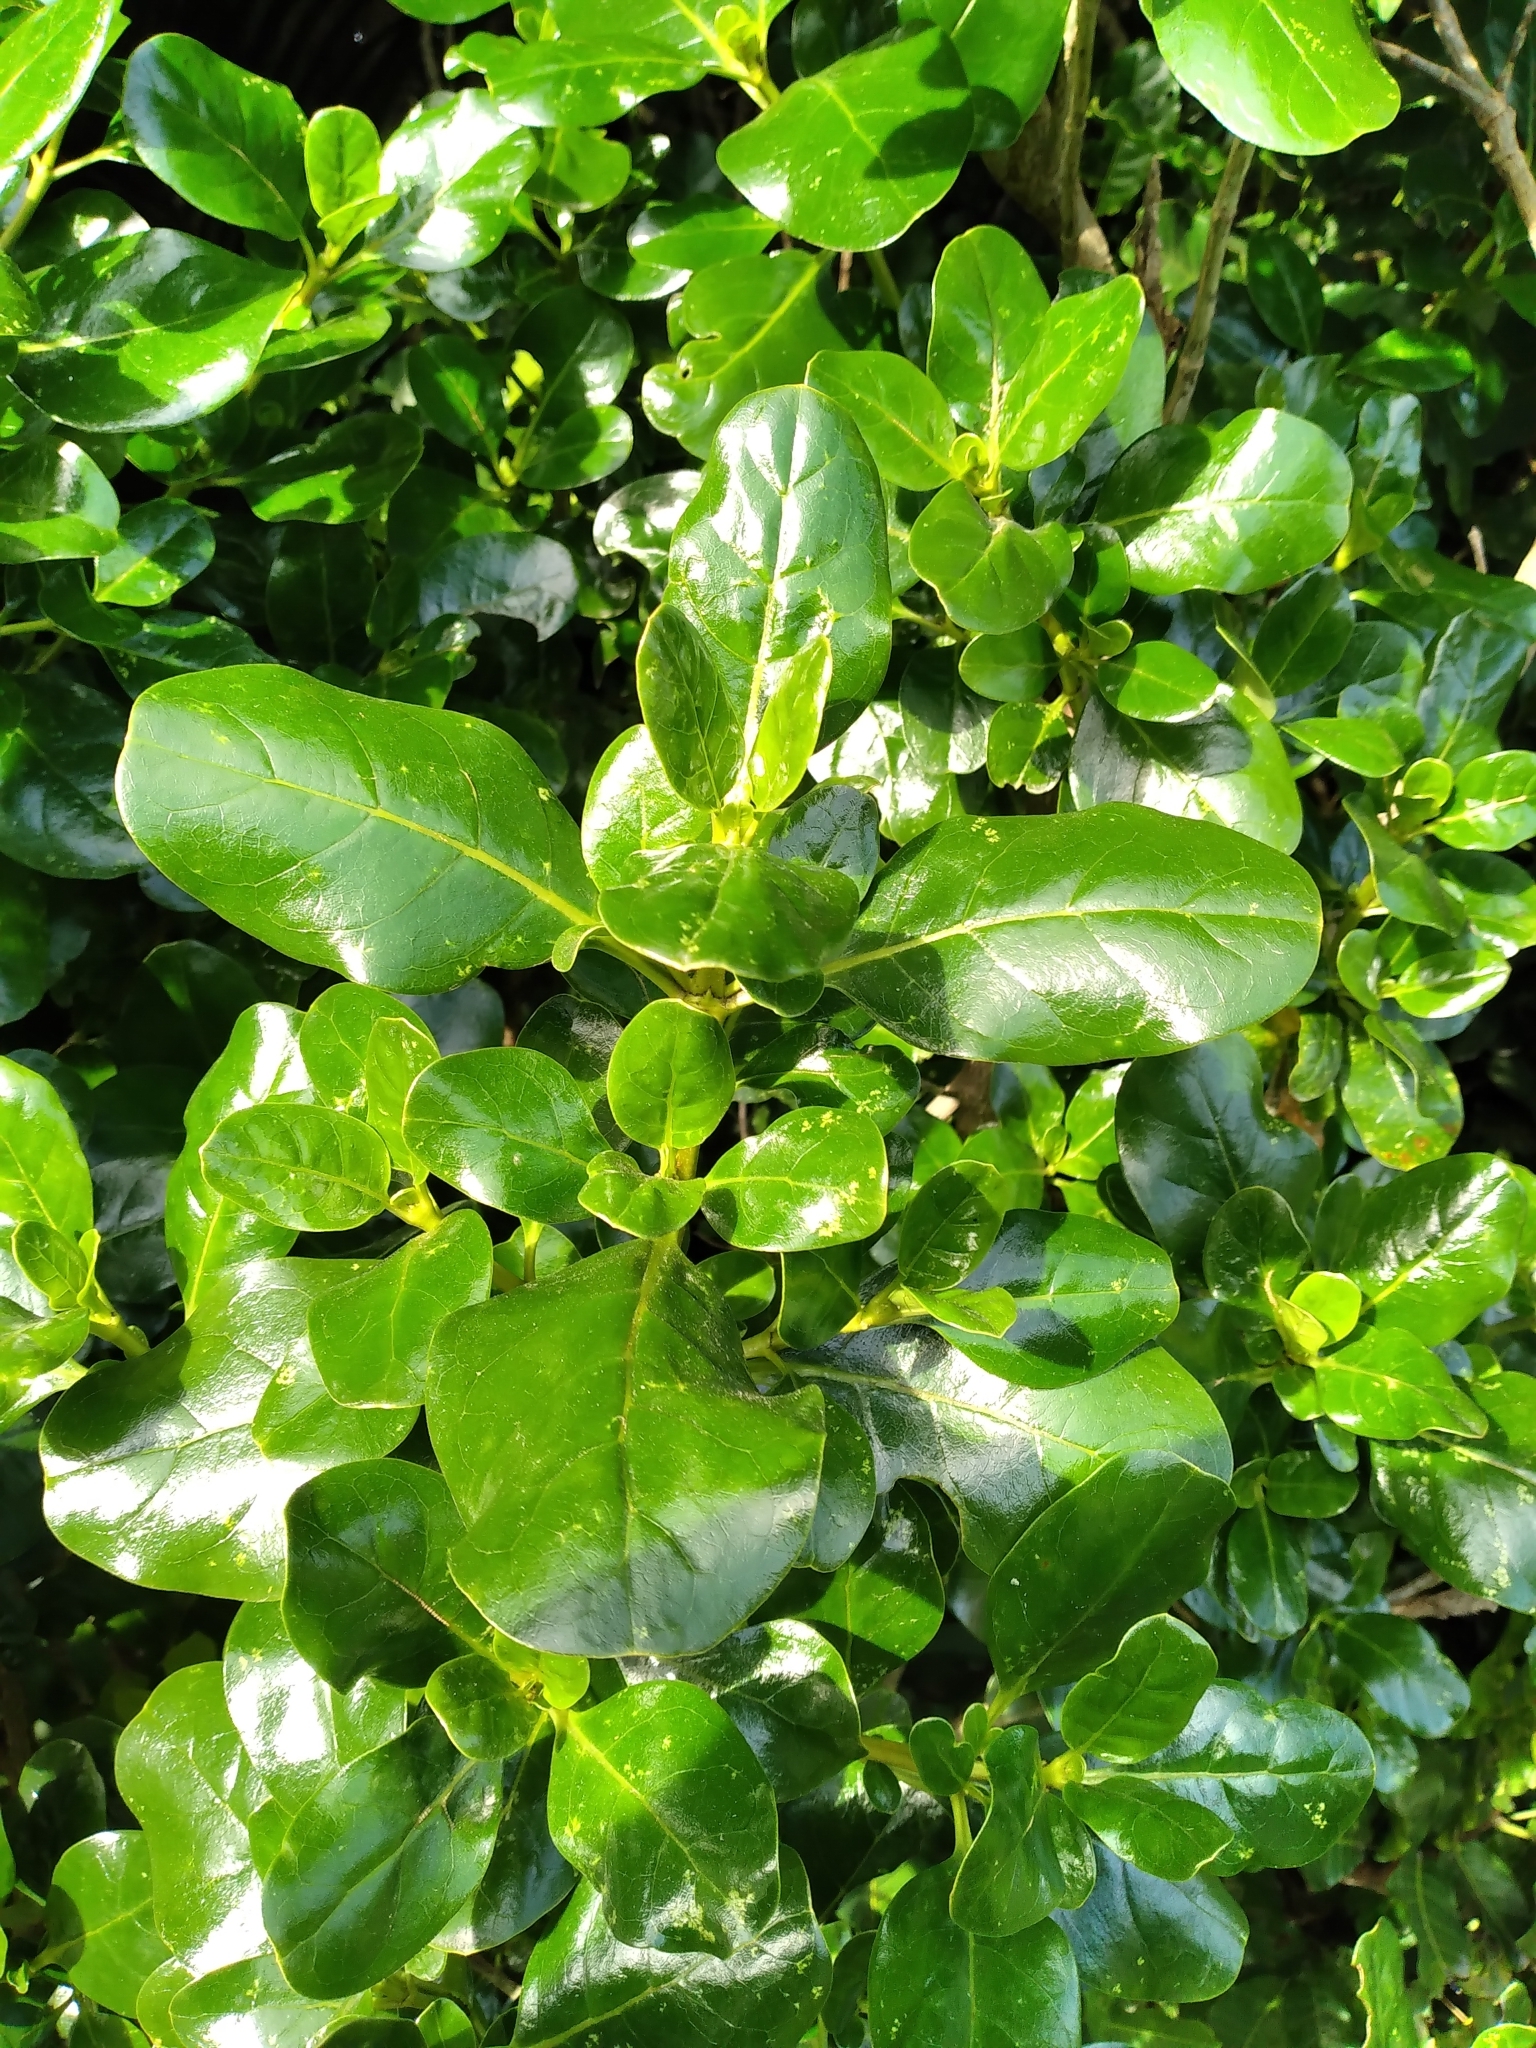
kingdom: Plantae
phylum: Tracheophyta
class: Magnoliopsida
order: Gentianales
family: Rubiaceae
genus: Coprosma
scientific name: Coprosma repens
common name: Tree bedstraw
